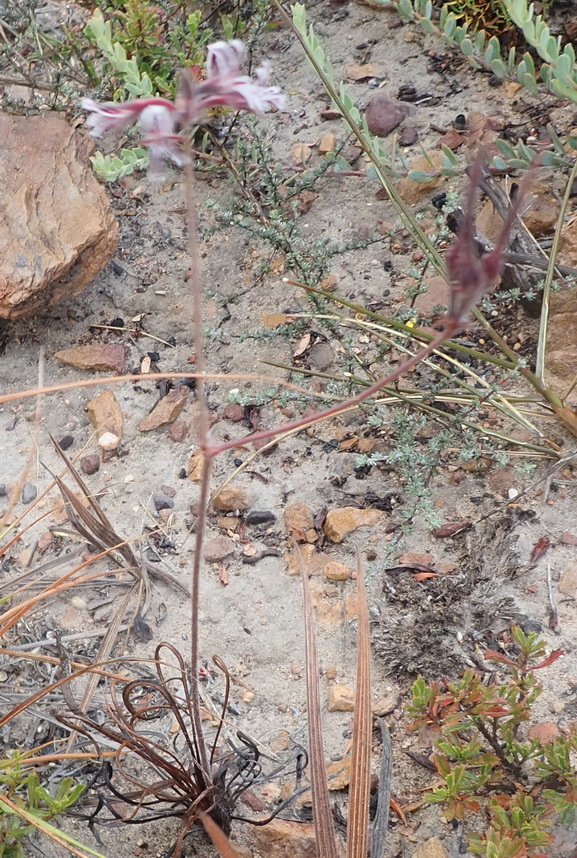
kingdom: Plantae
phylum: Tracheophyta
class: Magnoliopsida
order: Geraniales
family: Geraniaceae
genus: Pelargonium
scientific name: Pelargonium pilosellifolium
